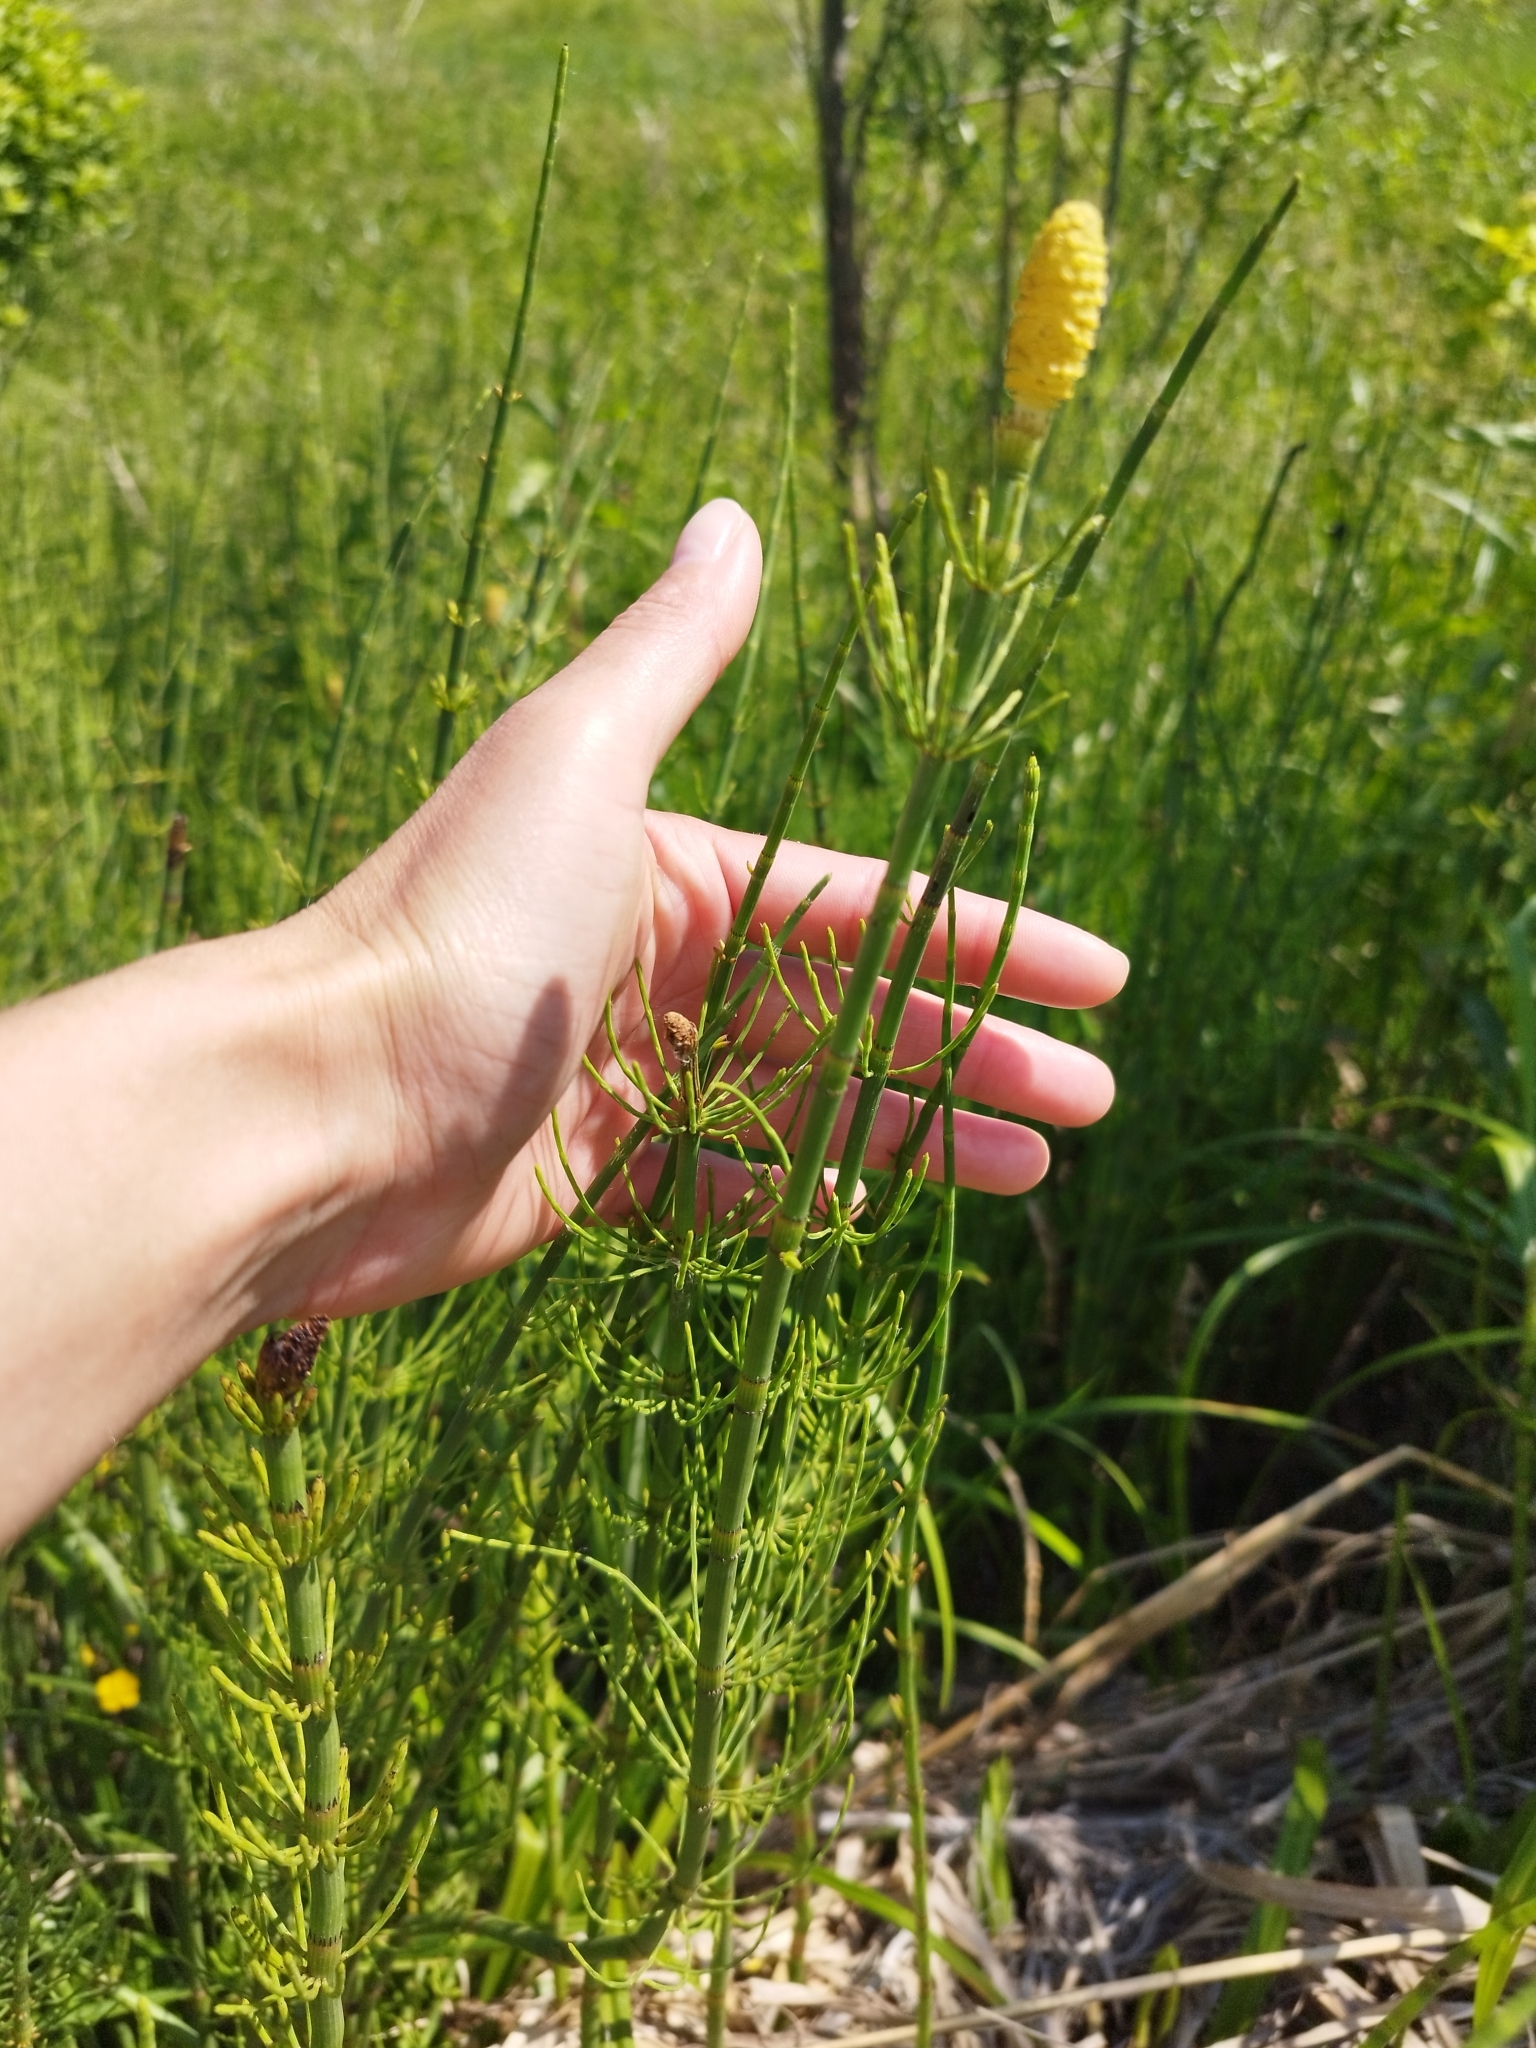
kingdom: Plantae
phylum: Tracheophyta
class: Polypodiopsida
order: Equisetales
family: Equisetaceae
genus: Equisetum
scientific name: Equisetum fluviatile
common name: Water horsetail
